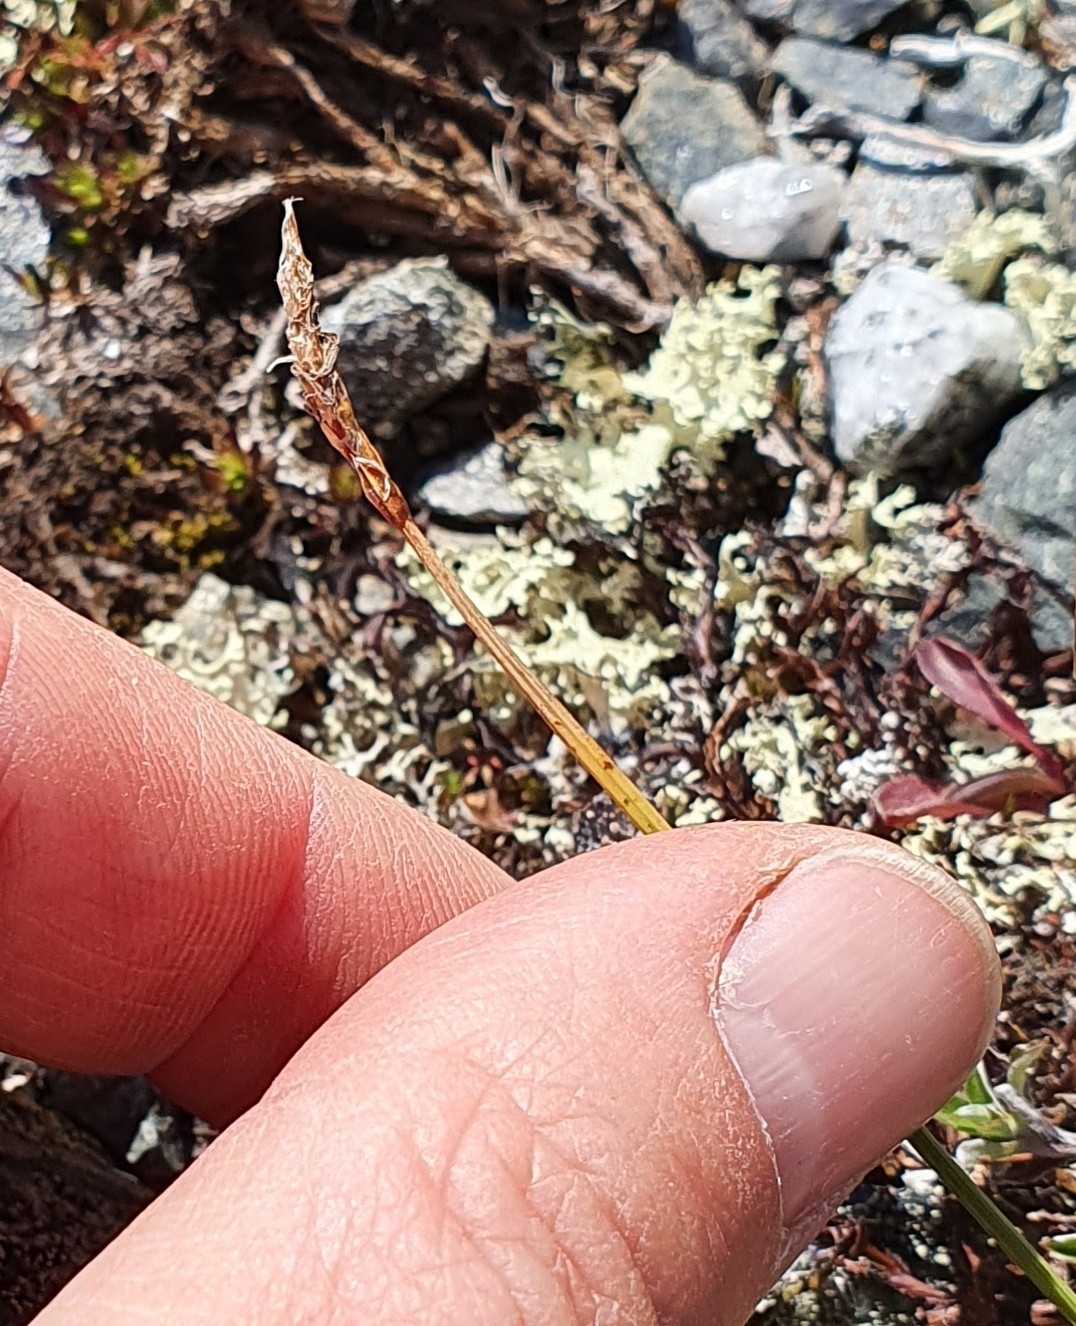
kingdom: Plantae
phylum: Tracheophyta
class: Liliopsida
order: Poales
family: Cyperaceae
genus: Carex
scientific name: Carex rupestris
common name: Rock sedge
